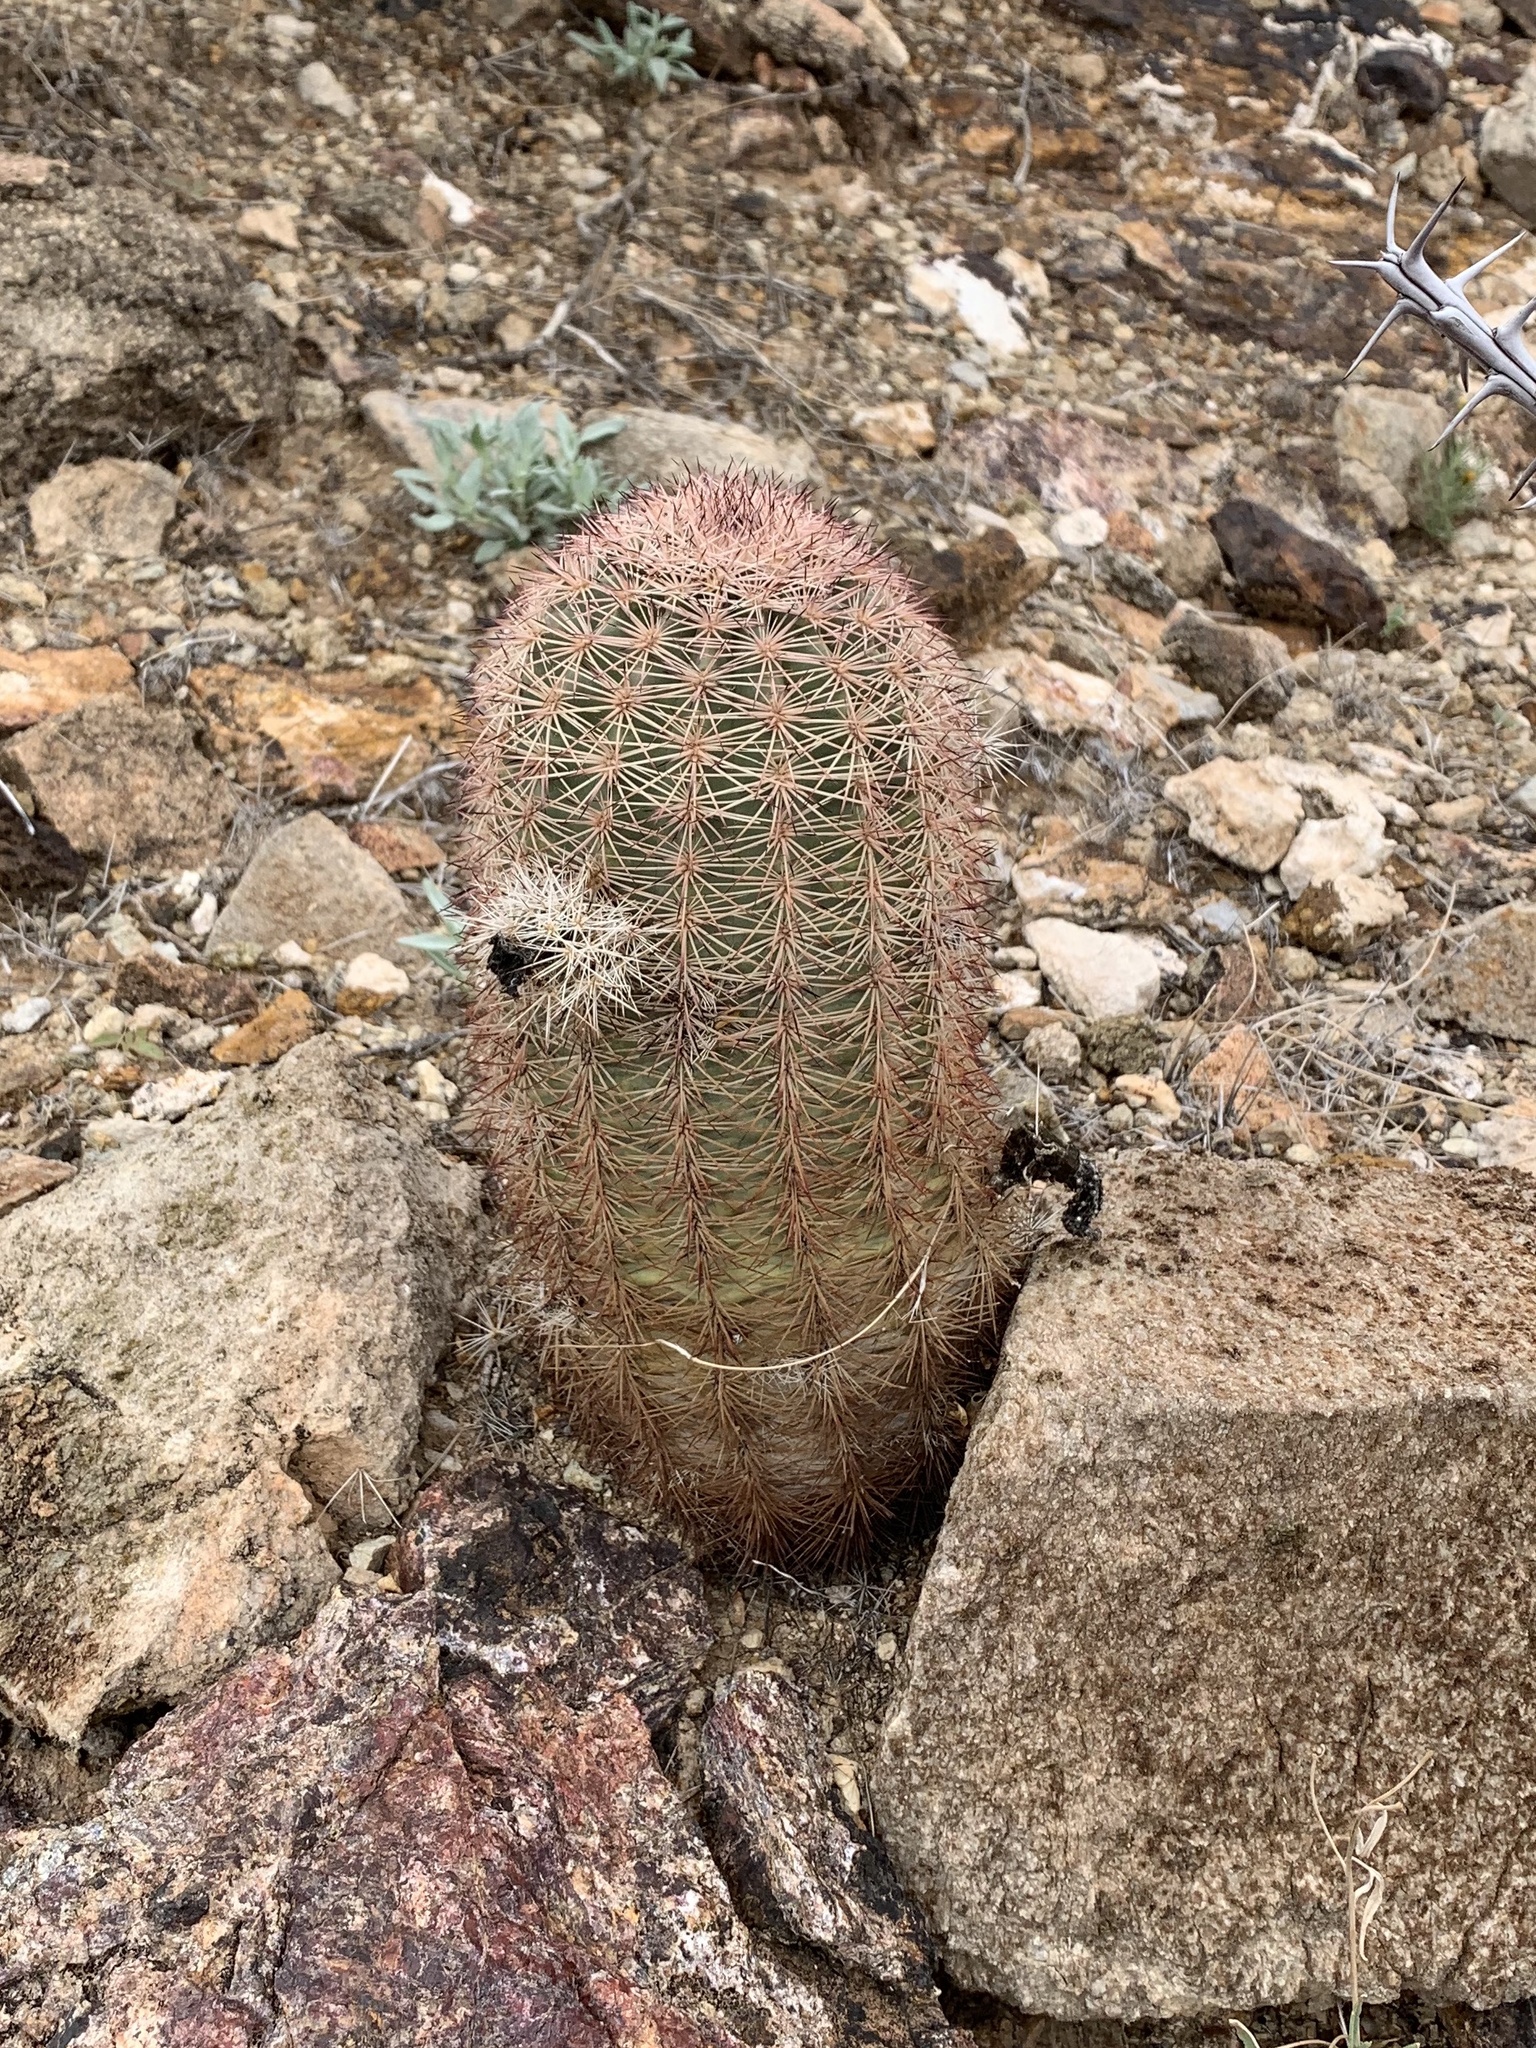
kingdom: Plantae
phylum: Tracheophyta
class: Magnoliopsida
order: Caryophyllales
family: Cactaceae
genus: Echinocereus
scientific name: Echinocereus dasyacanthus
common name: Spiny hedgehog cactus
